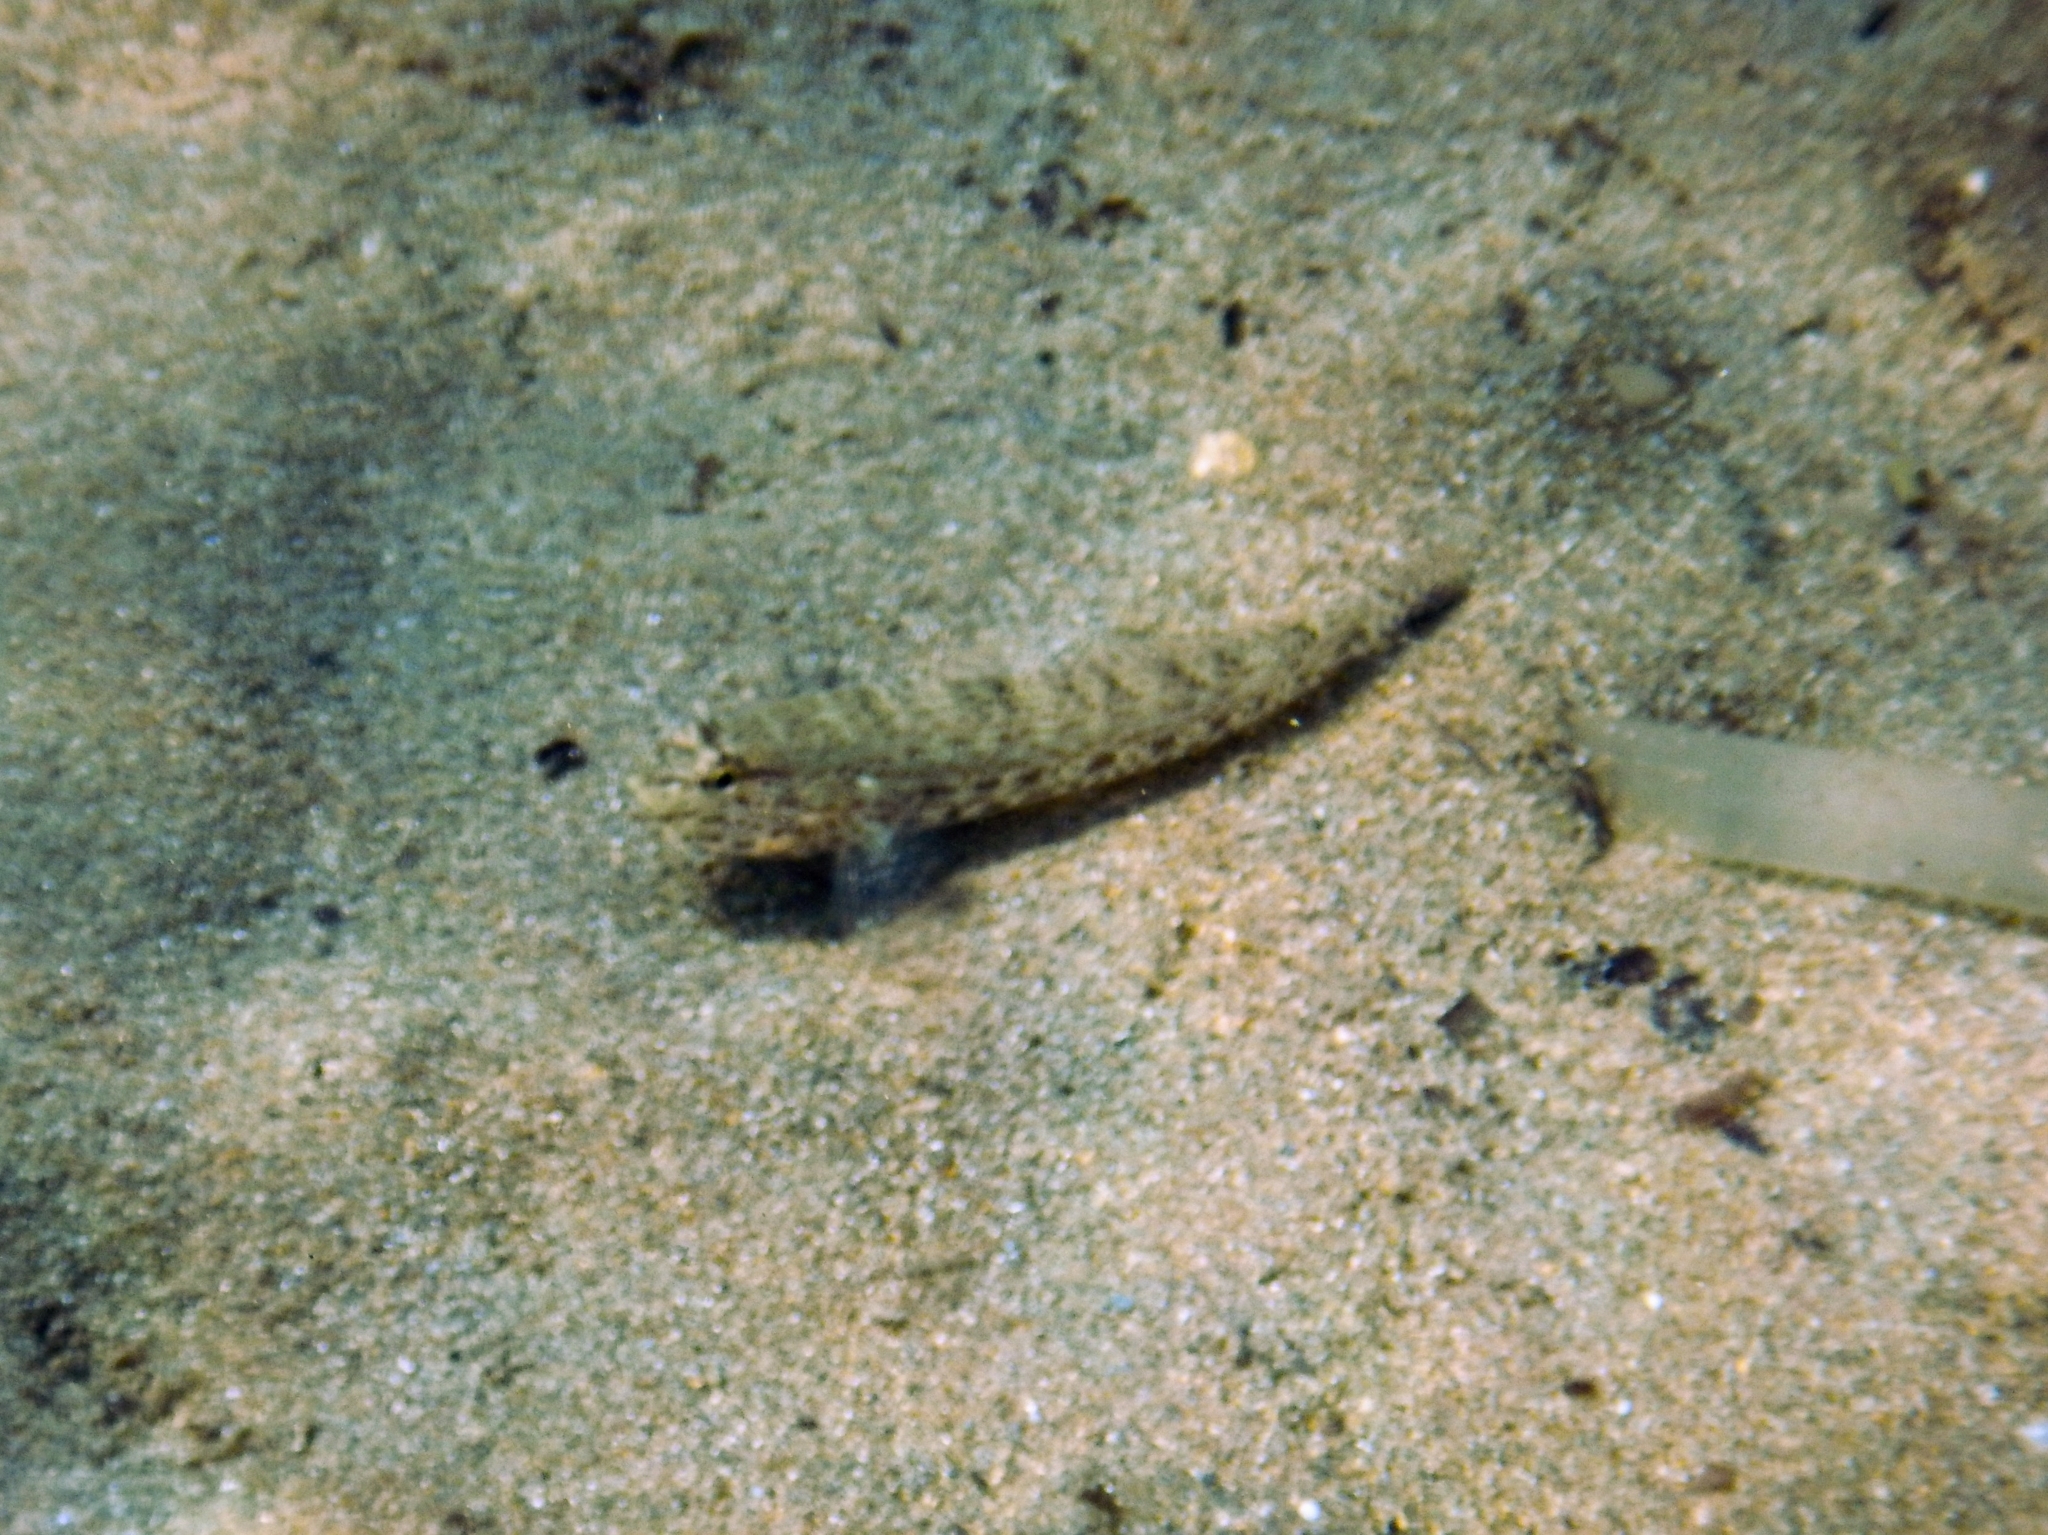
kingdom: Animalia
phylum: Chordata
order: Perciformes
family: Gobiidae
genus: Gobius
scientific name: Gobius incognitus
